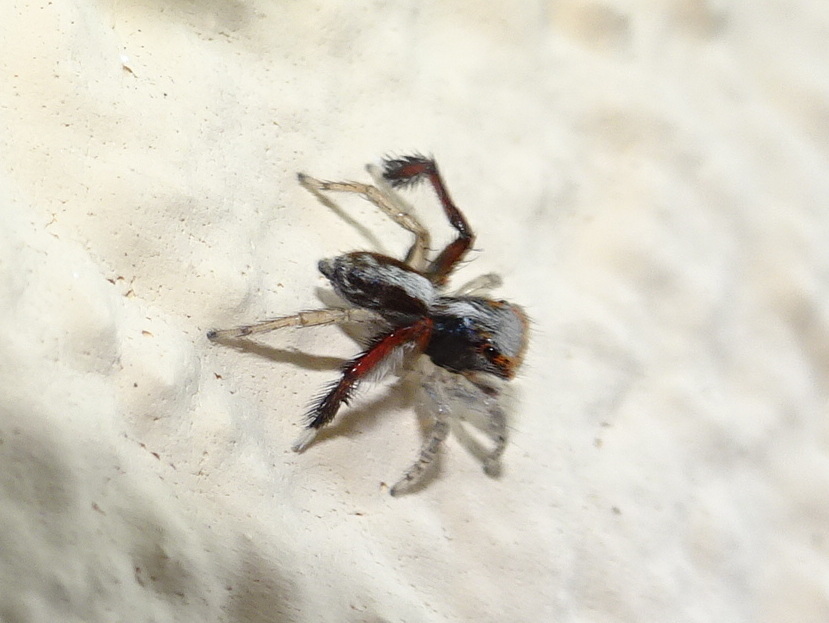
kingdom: Animalia
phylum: Arthropoda
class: Arachnida
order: Araneae
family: Salticidae
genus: Saitis
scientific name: Saitis barbipes
